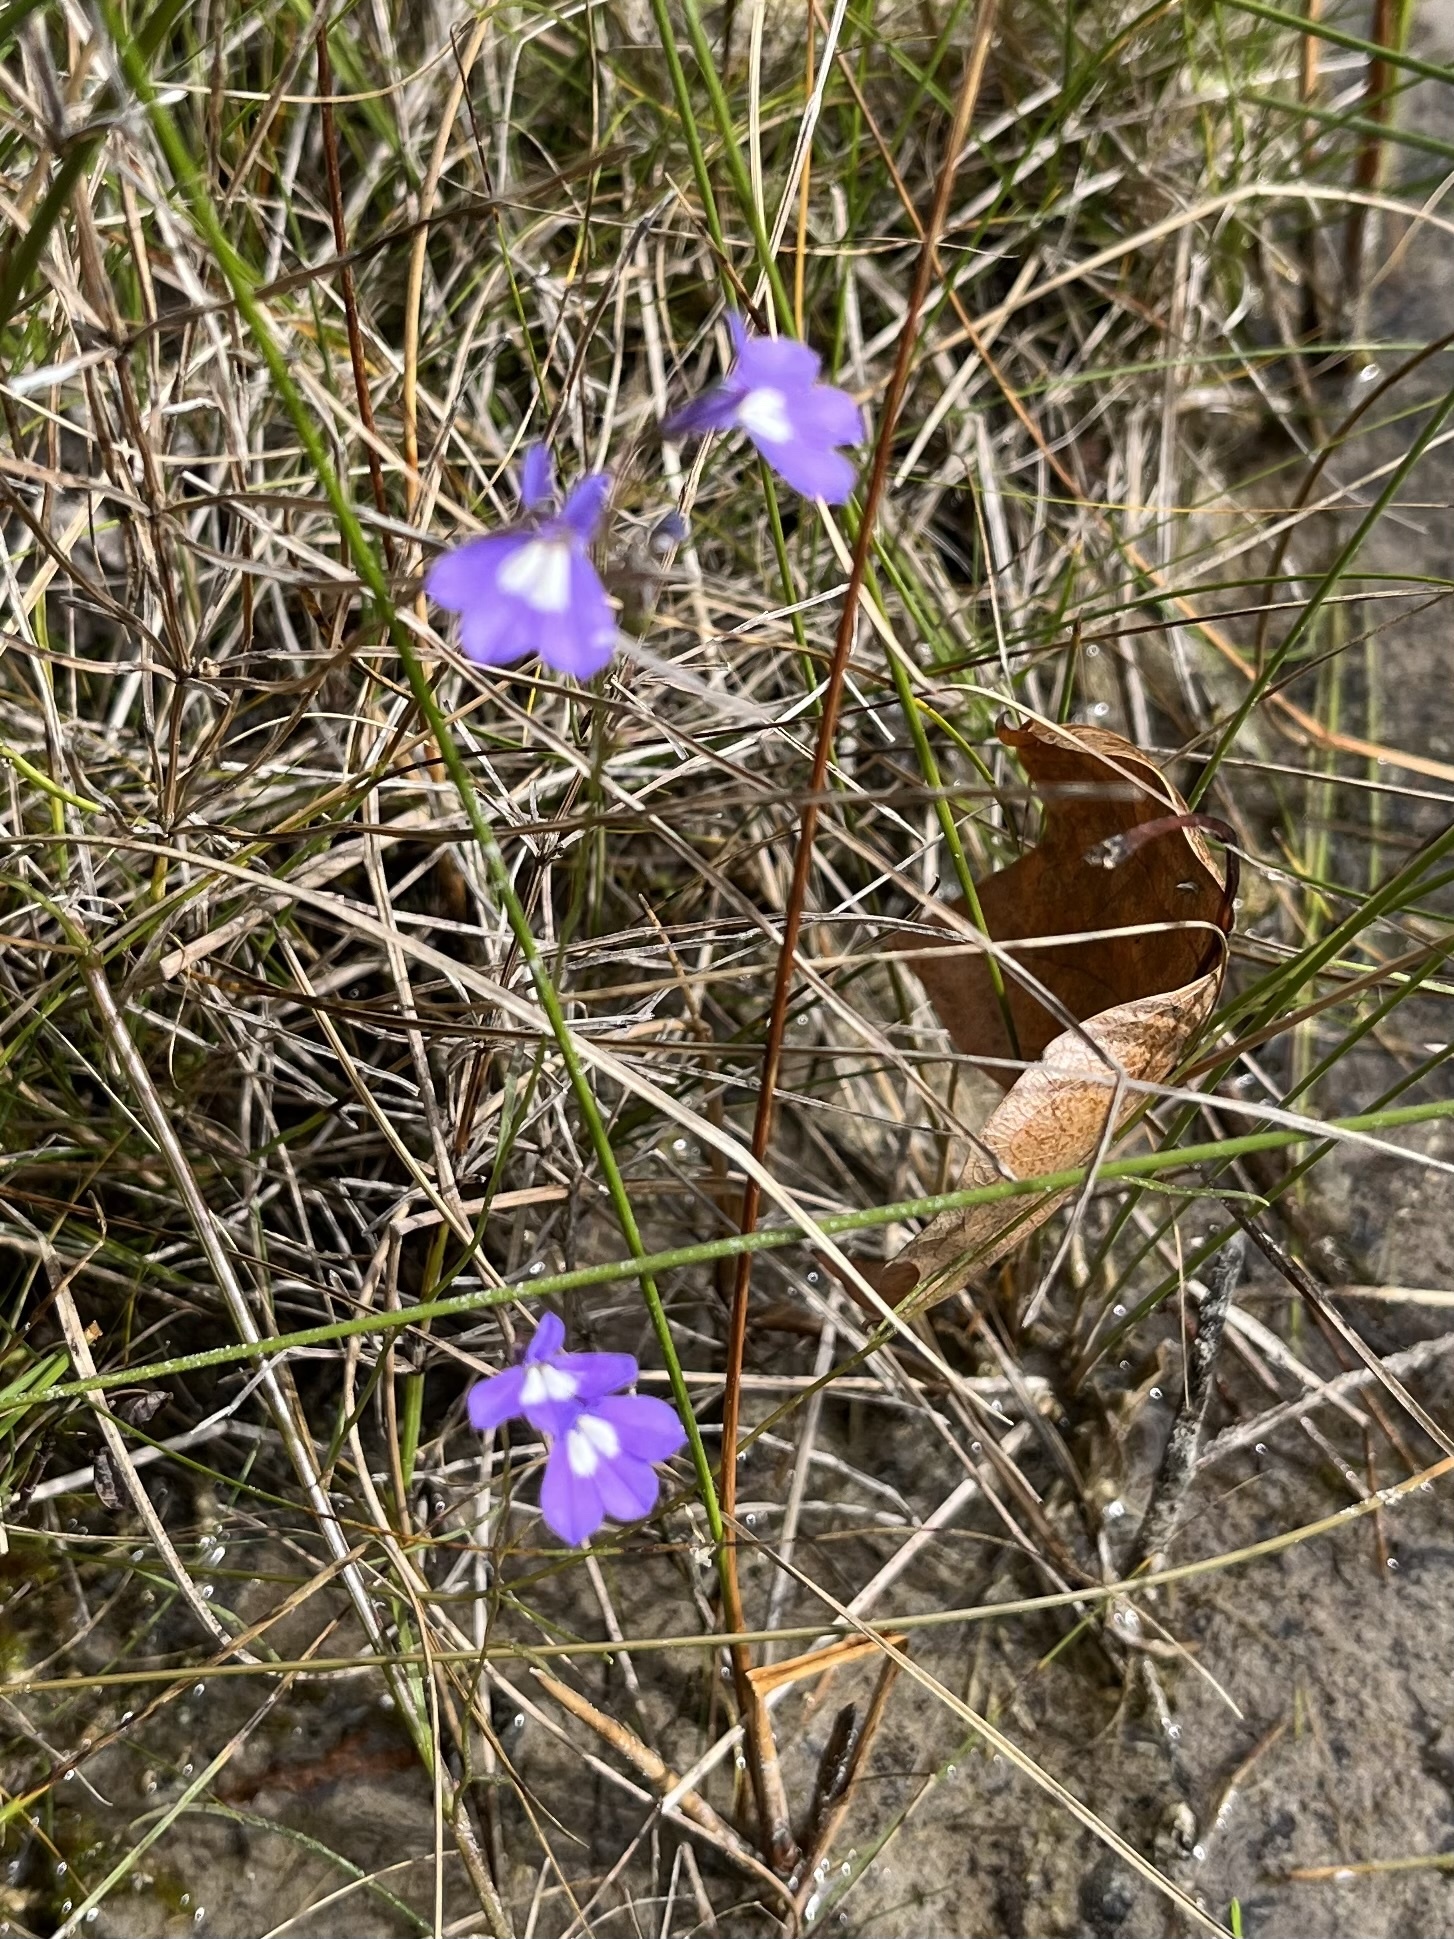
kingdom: Plantae
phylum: Tracheophyta
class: Magnoliopsida
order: Asterales
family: Campanulaceae
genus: Lobelia
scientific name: Lobelia kalmii
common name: Kalm's lobelia
